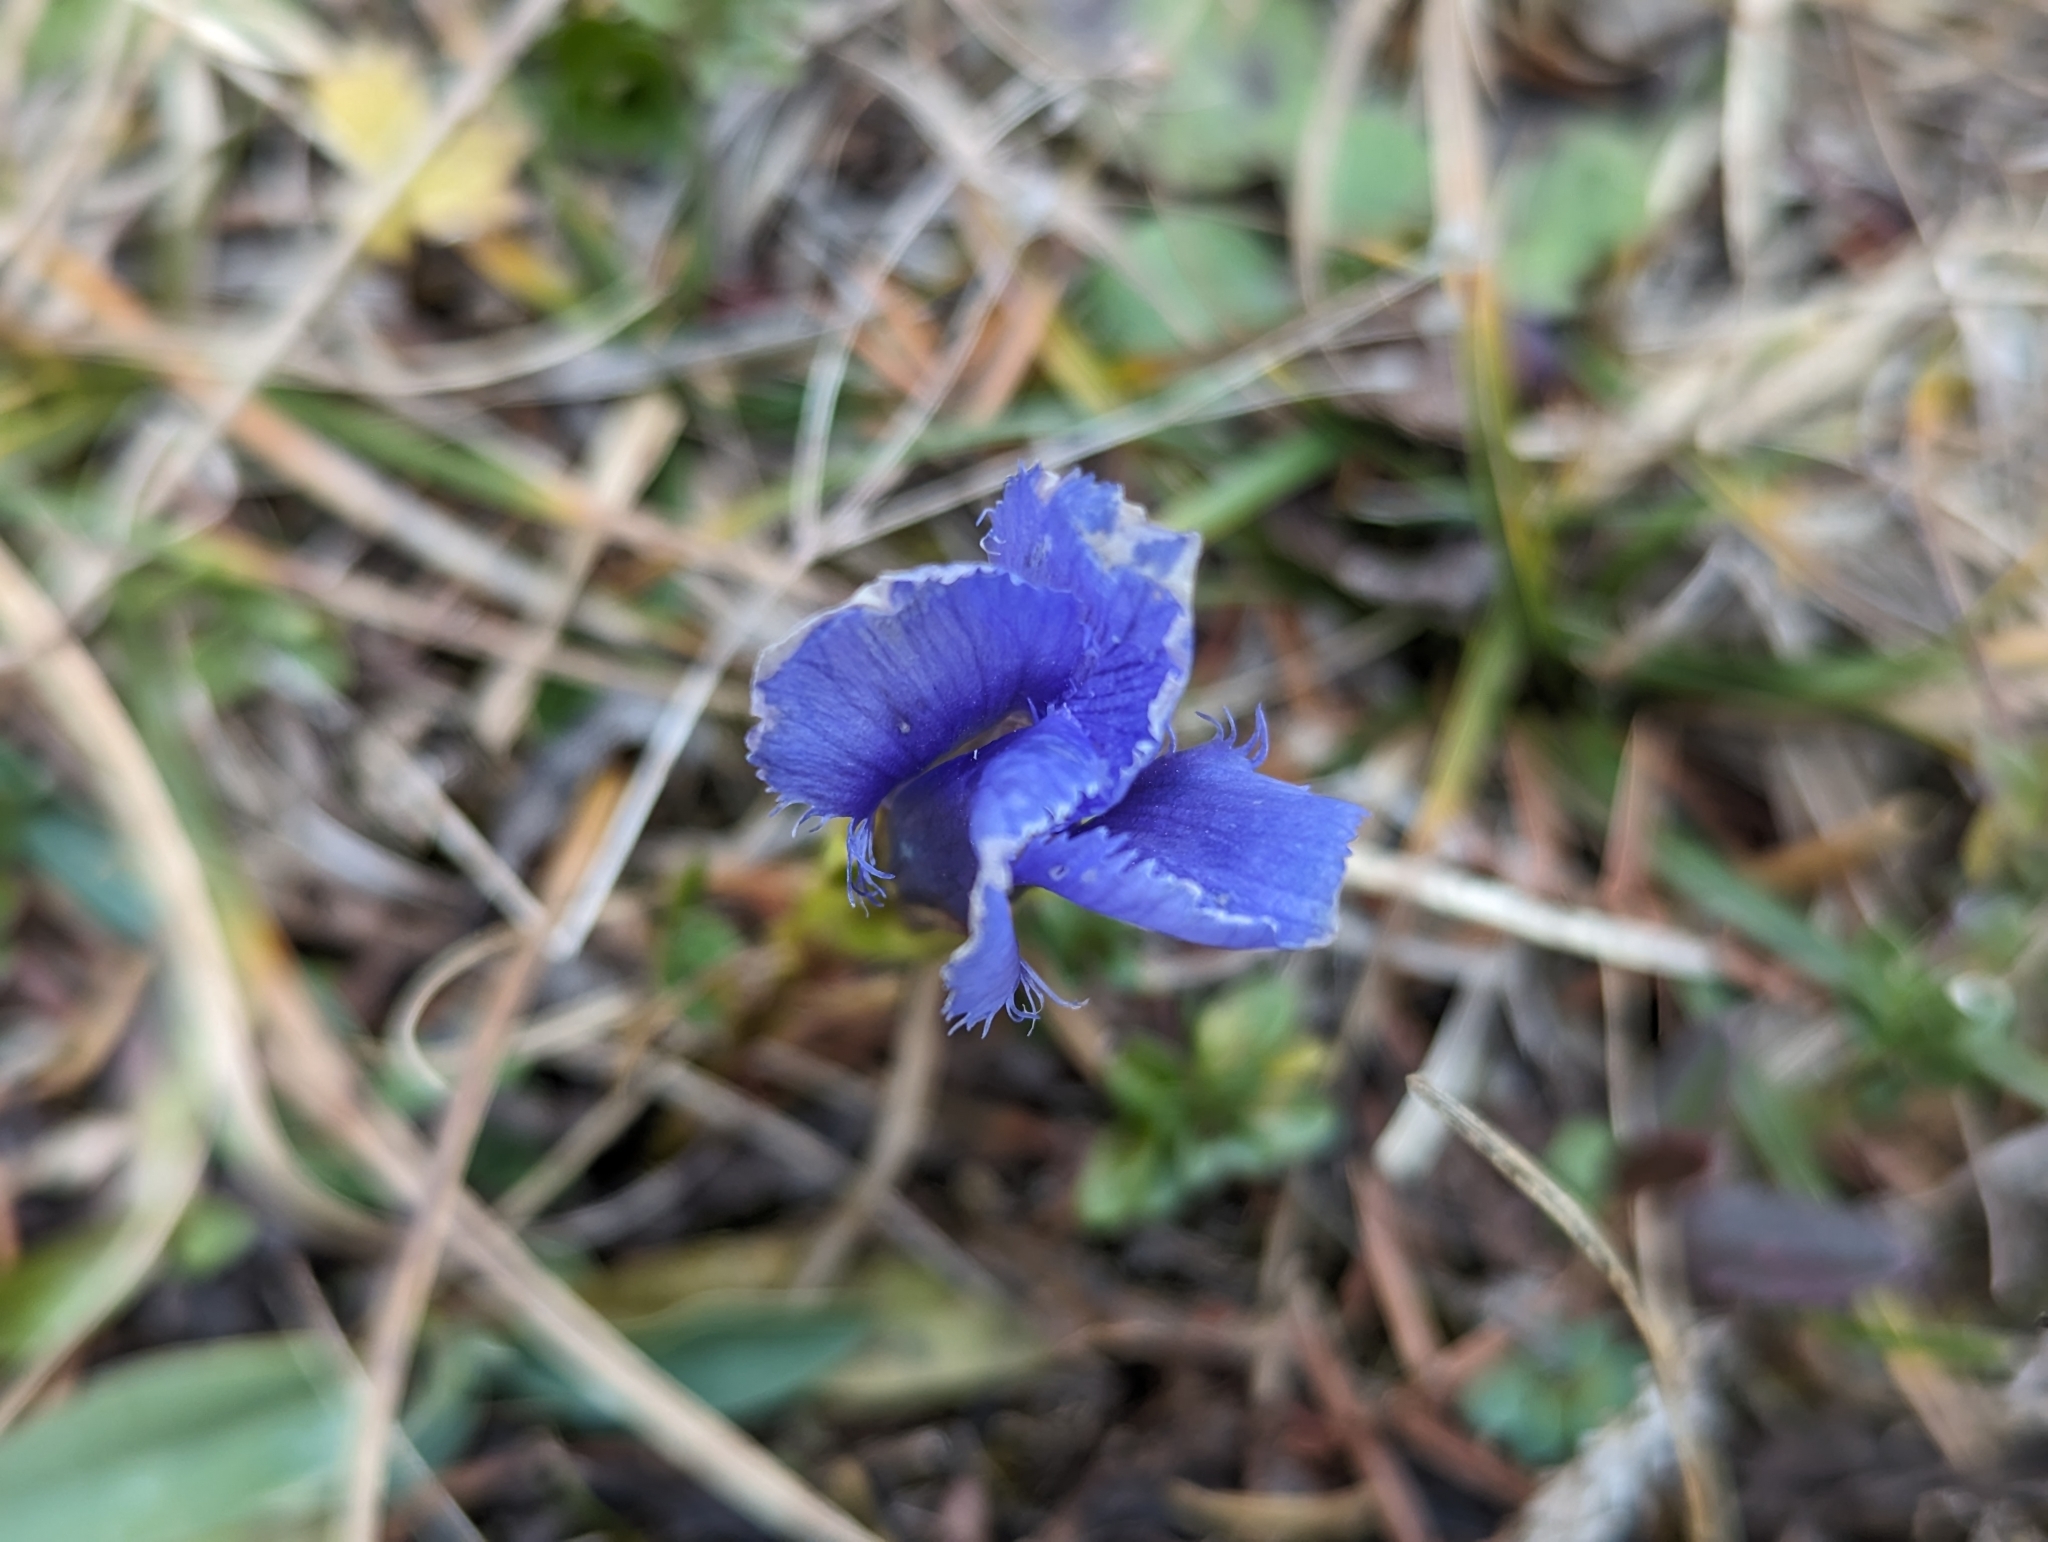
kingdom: Plantae
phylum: Tracheophyta
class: Magnoliopsida
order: Gentianales
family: Gentianaceae
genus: Gentianopsis
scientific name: Gentianopsis ciliata
